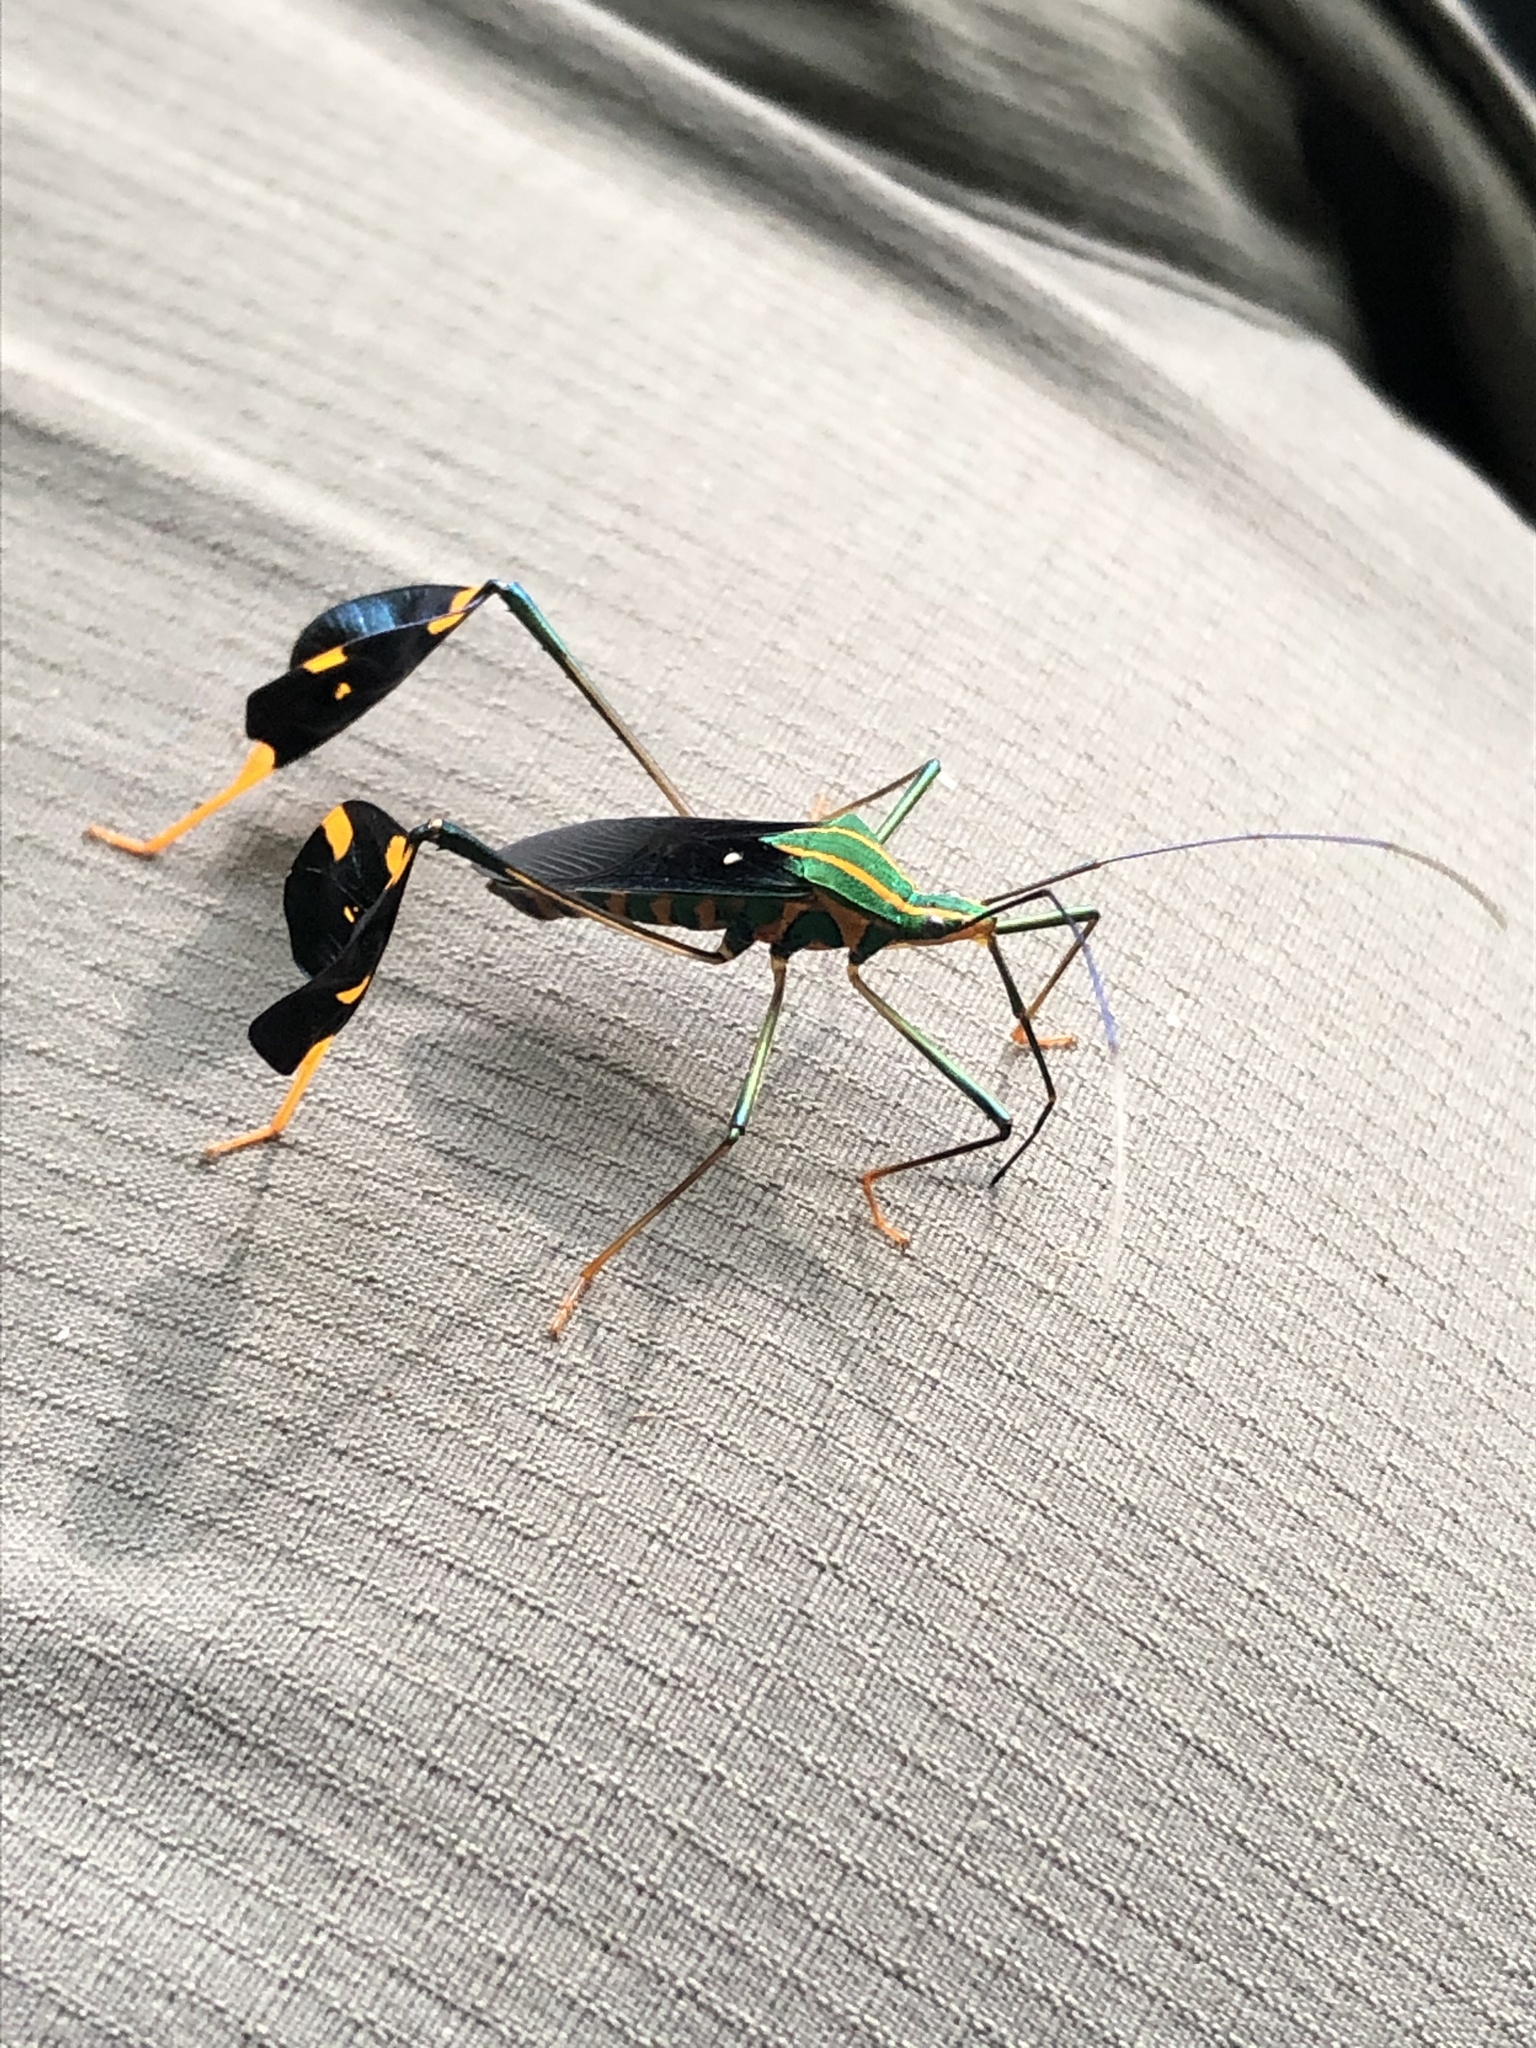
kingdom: Animalia
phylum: Arthropoda
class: Insecta
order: Hemiptera
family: Coreidae
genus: Diactor
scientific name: Diactor bilineatus
